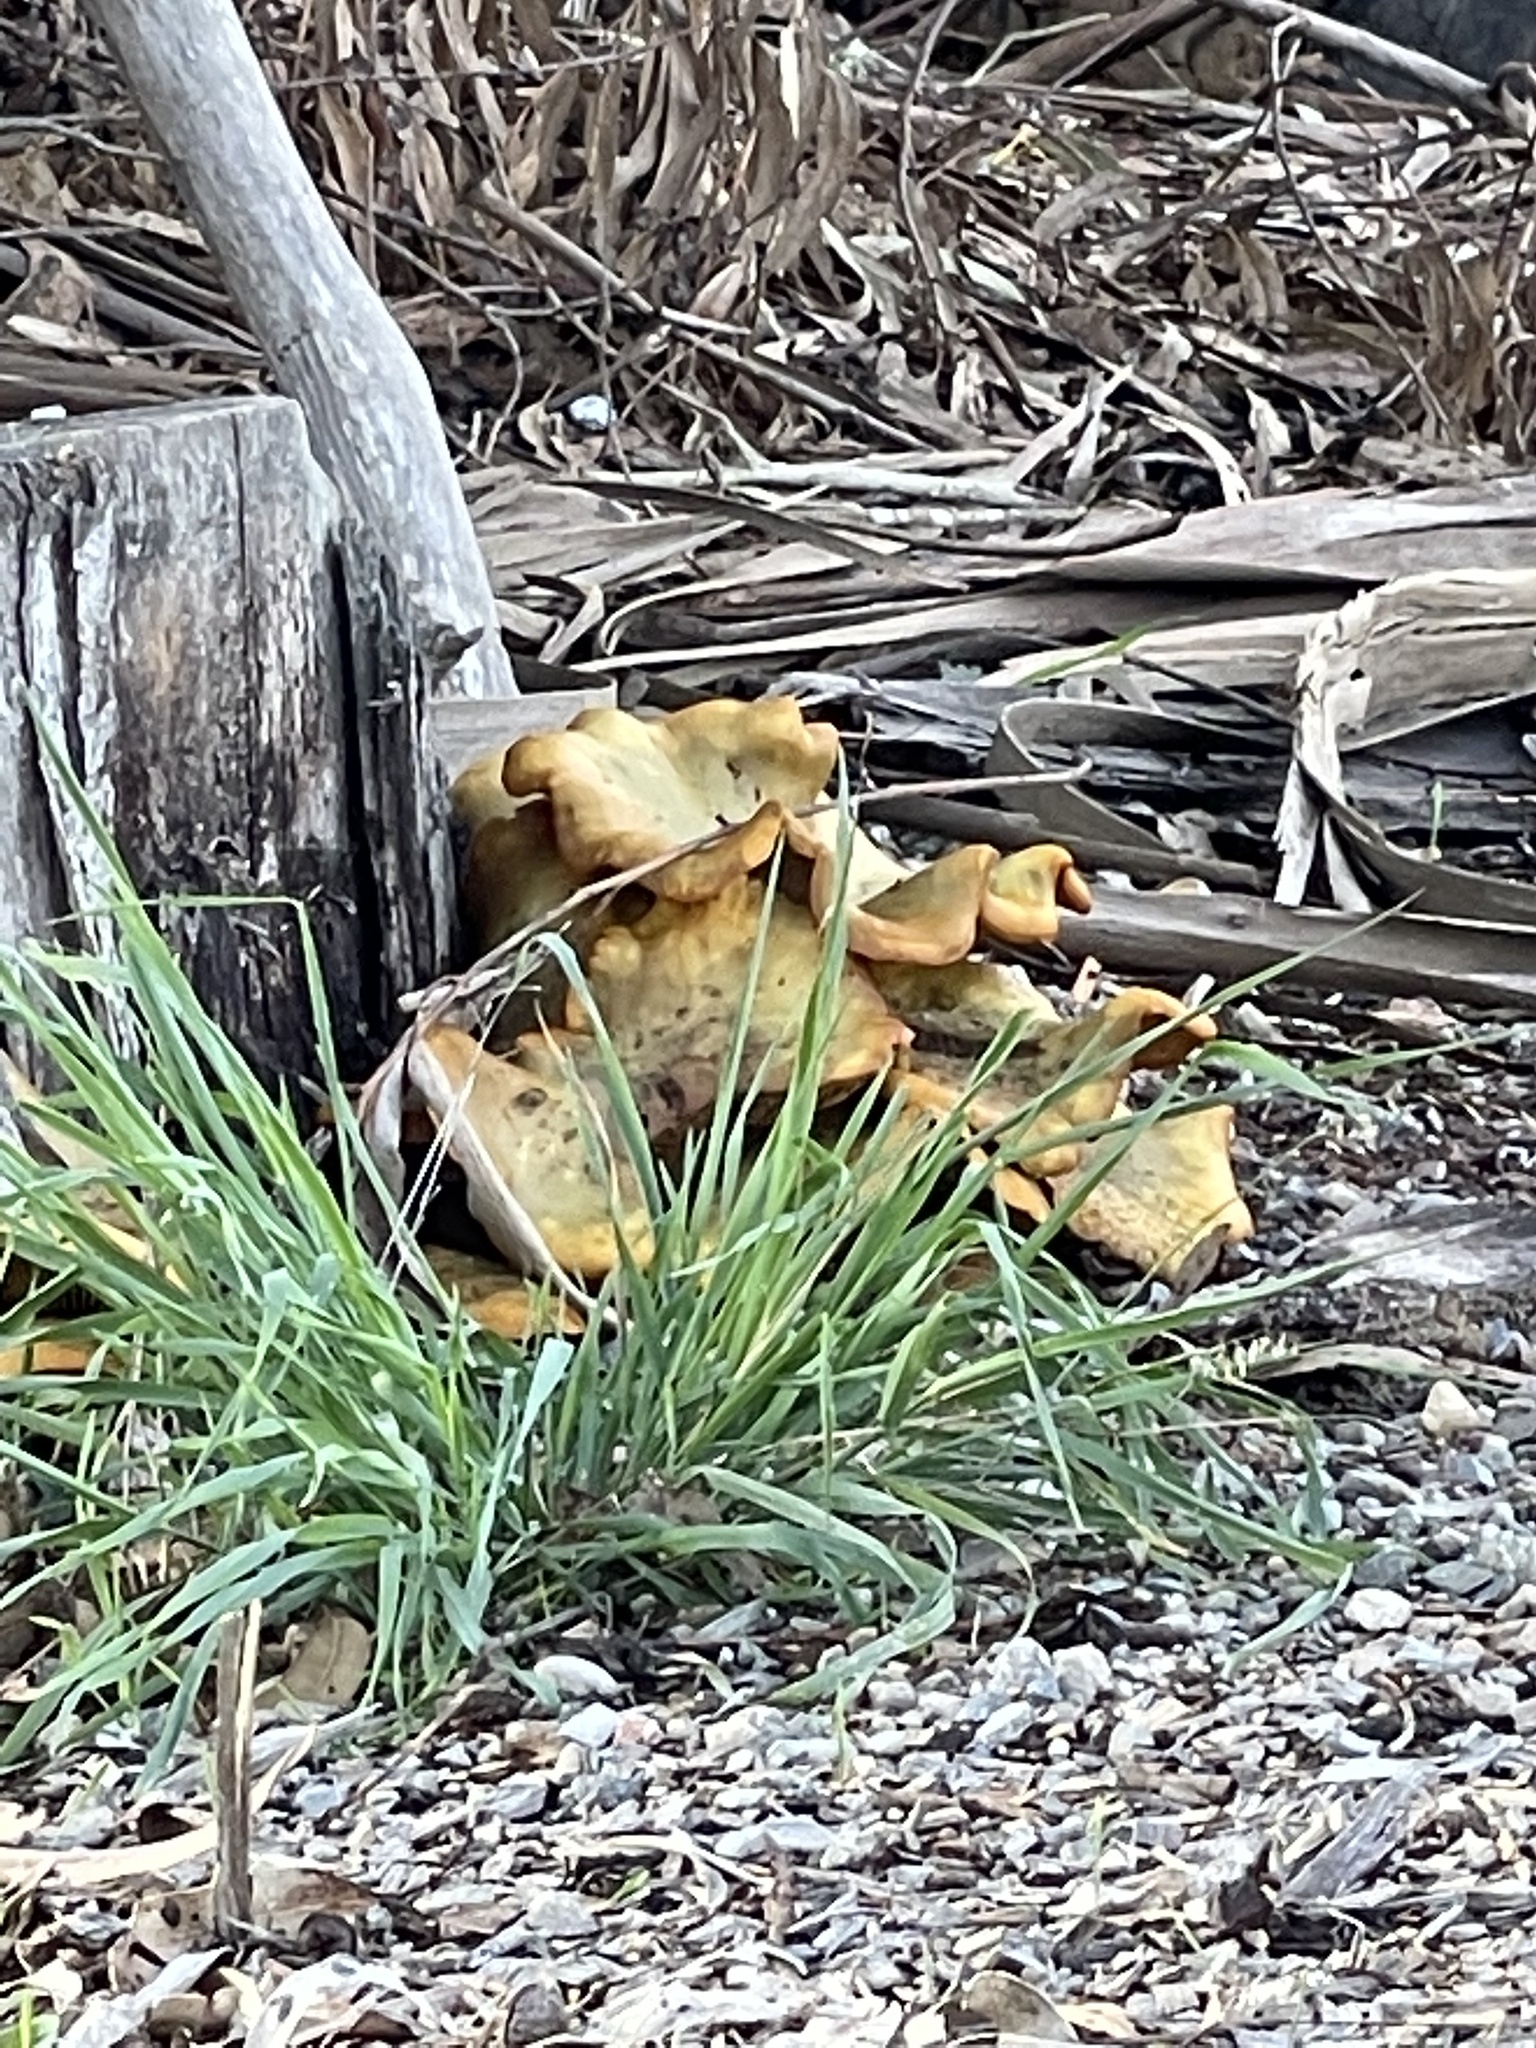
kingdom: Fungi
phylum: Basidiomycota
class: Agaricomycetes
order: Agaricales
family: Omphalotaceae
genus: Omphalotus
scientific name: Omphalotus olivascens
